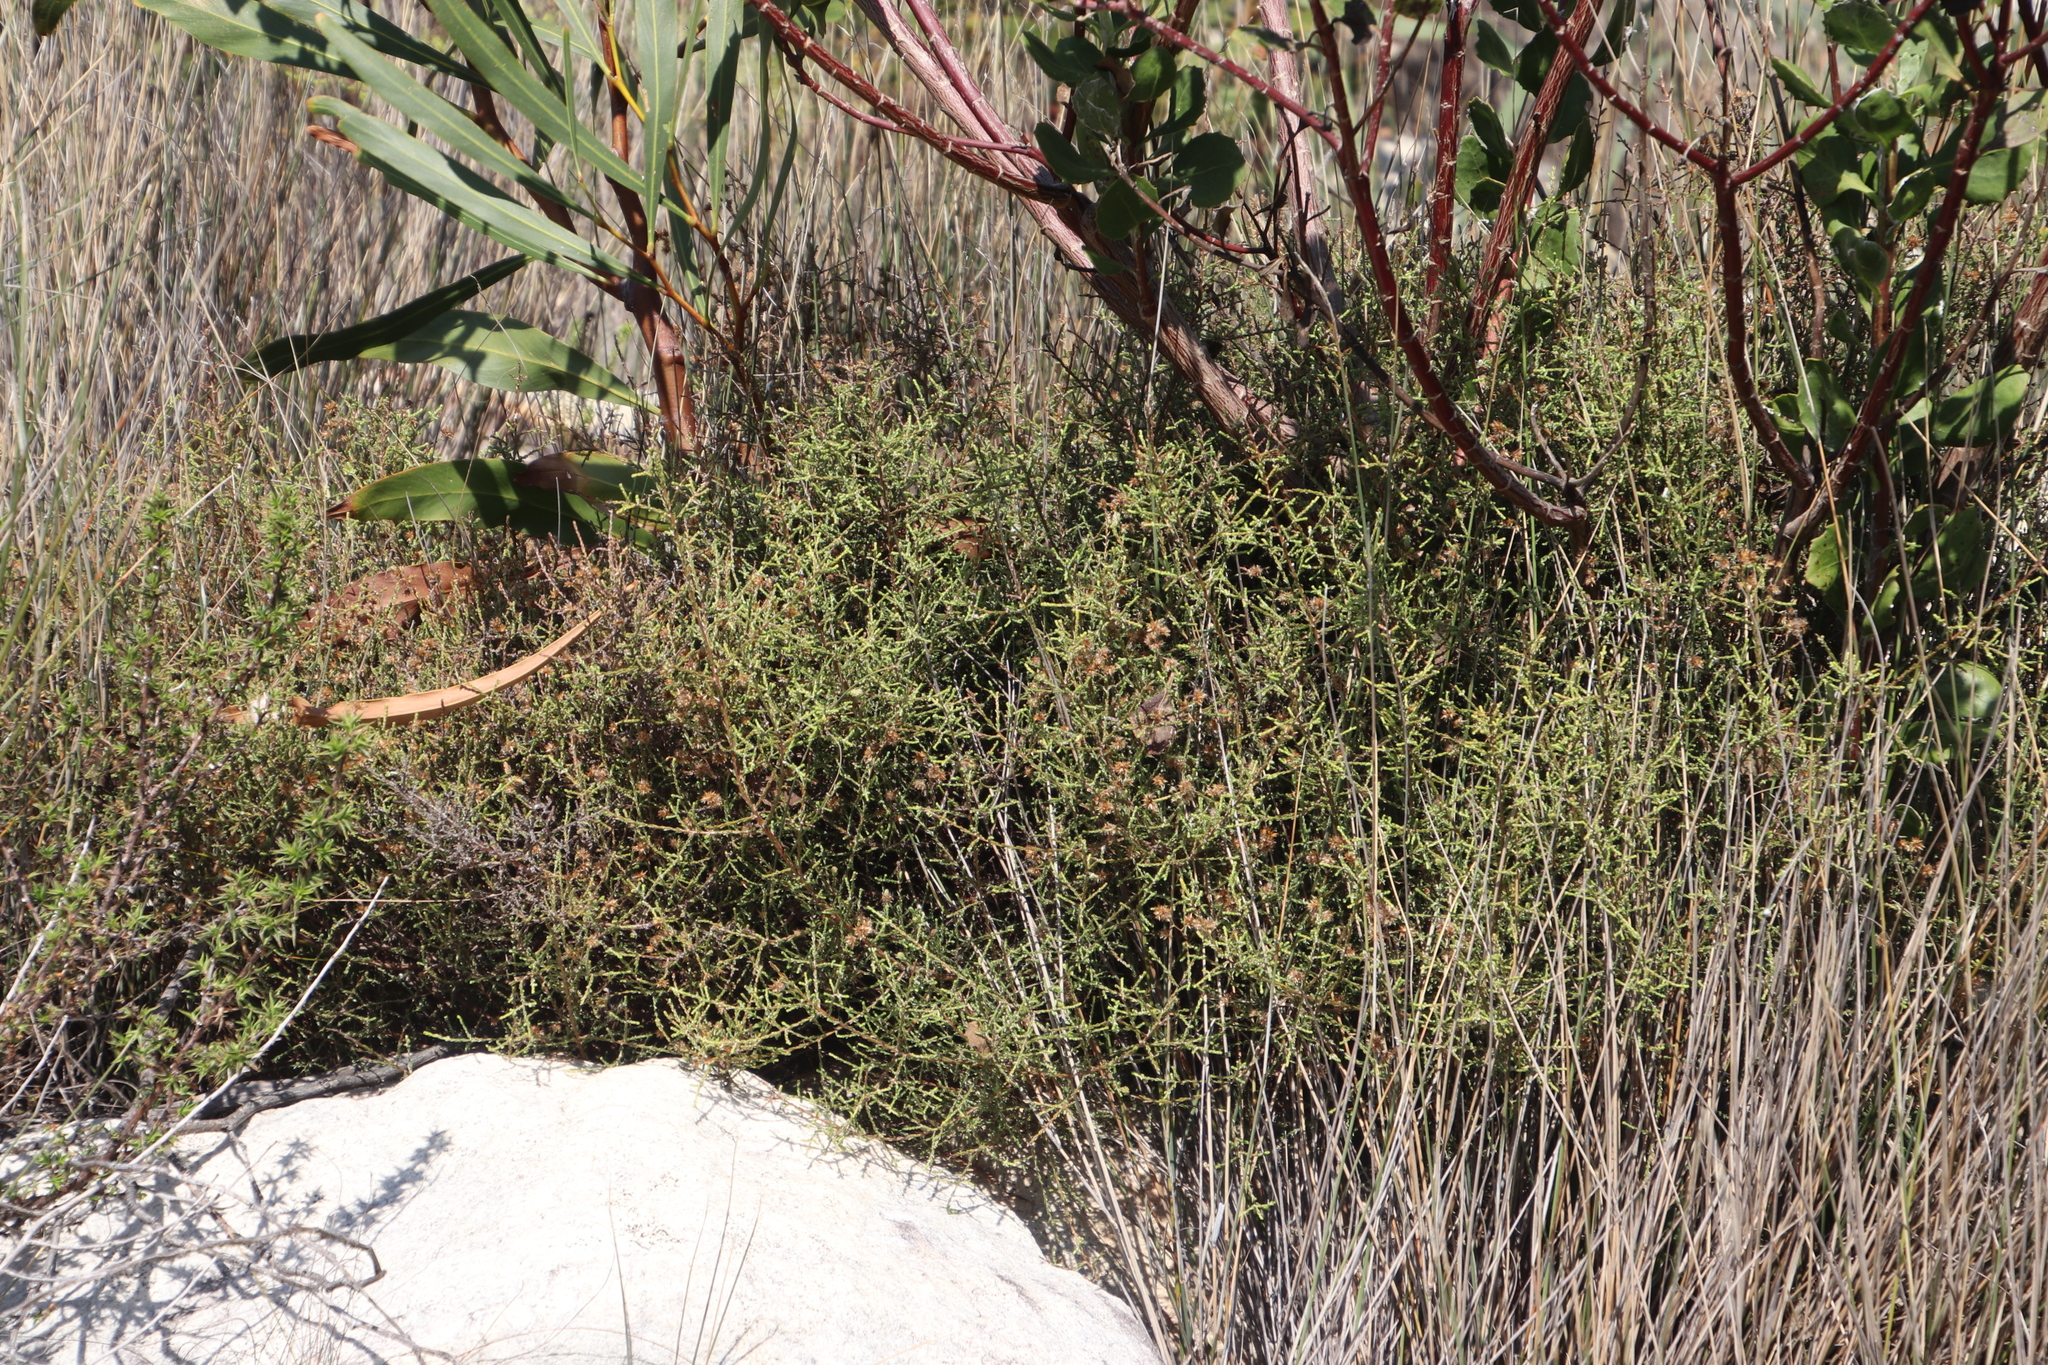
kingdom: Plantae
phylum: Tracheophyta
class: Magnoliopsida
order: Asterales
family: Asteraceae
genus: Myrovernix
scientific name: Myrovernix scaber
